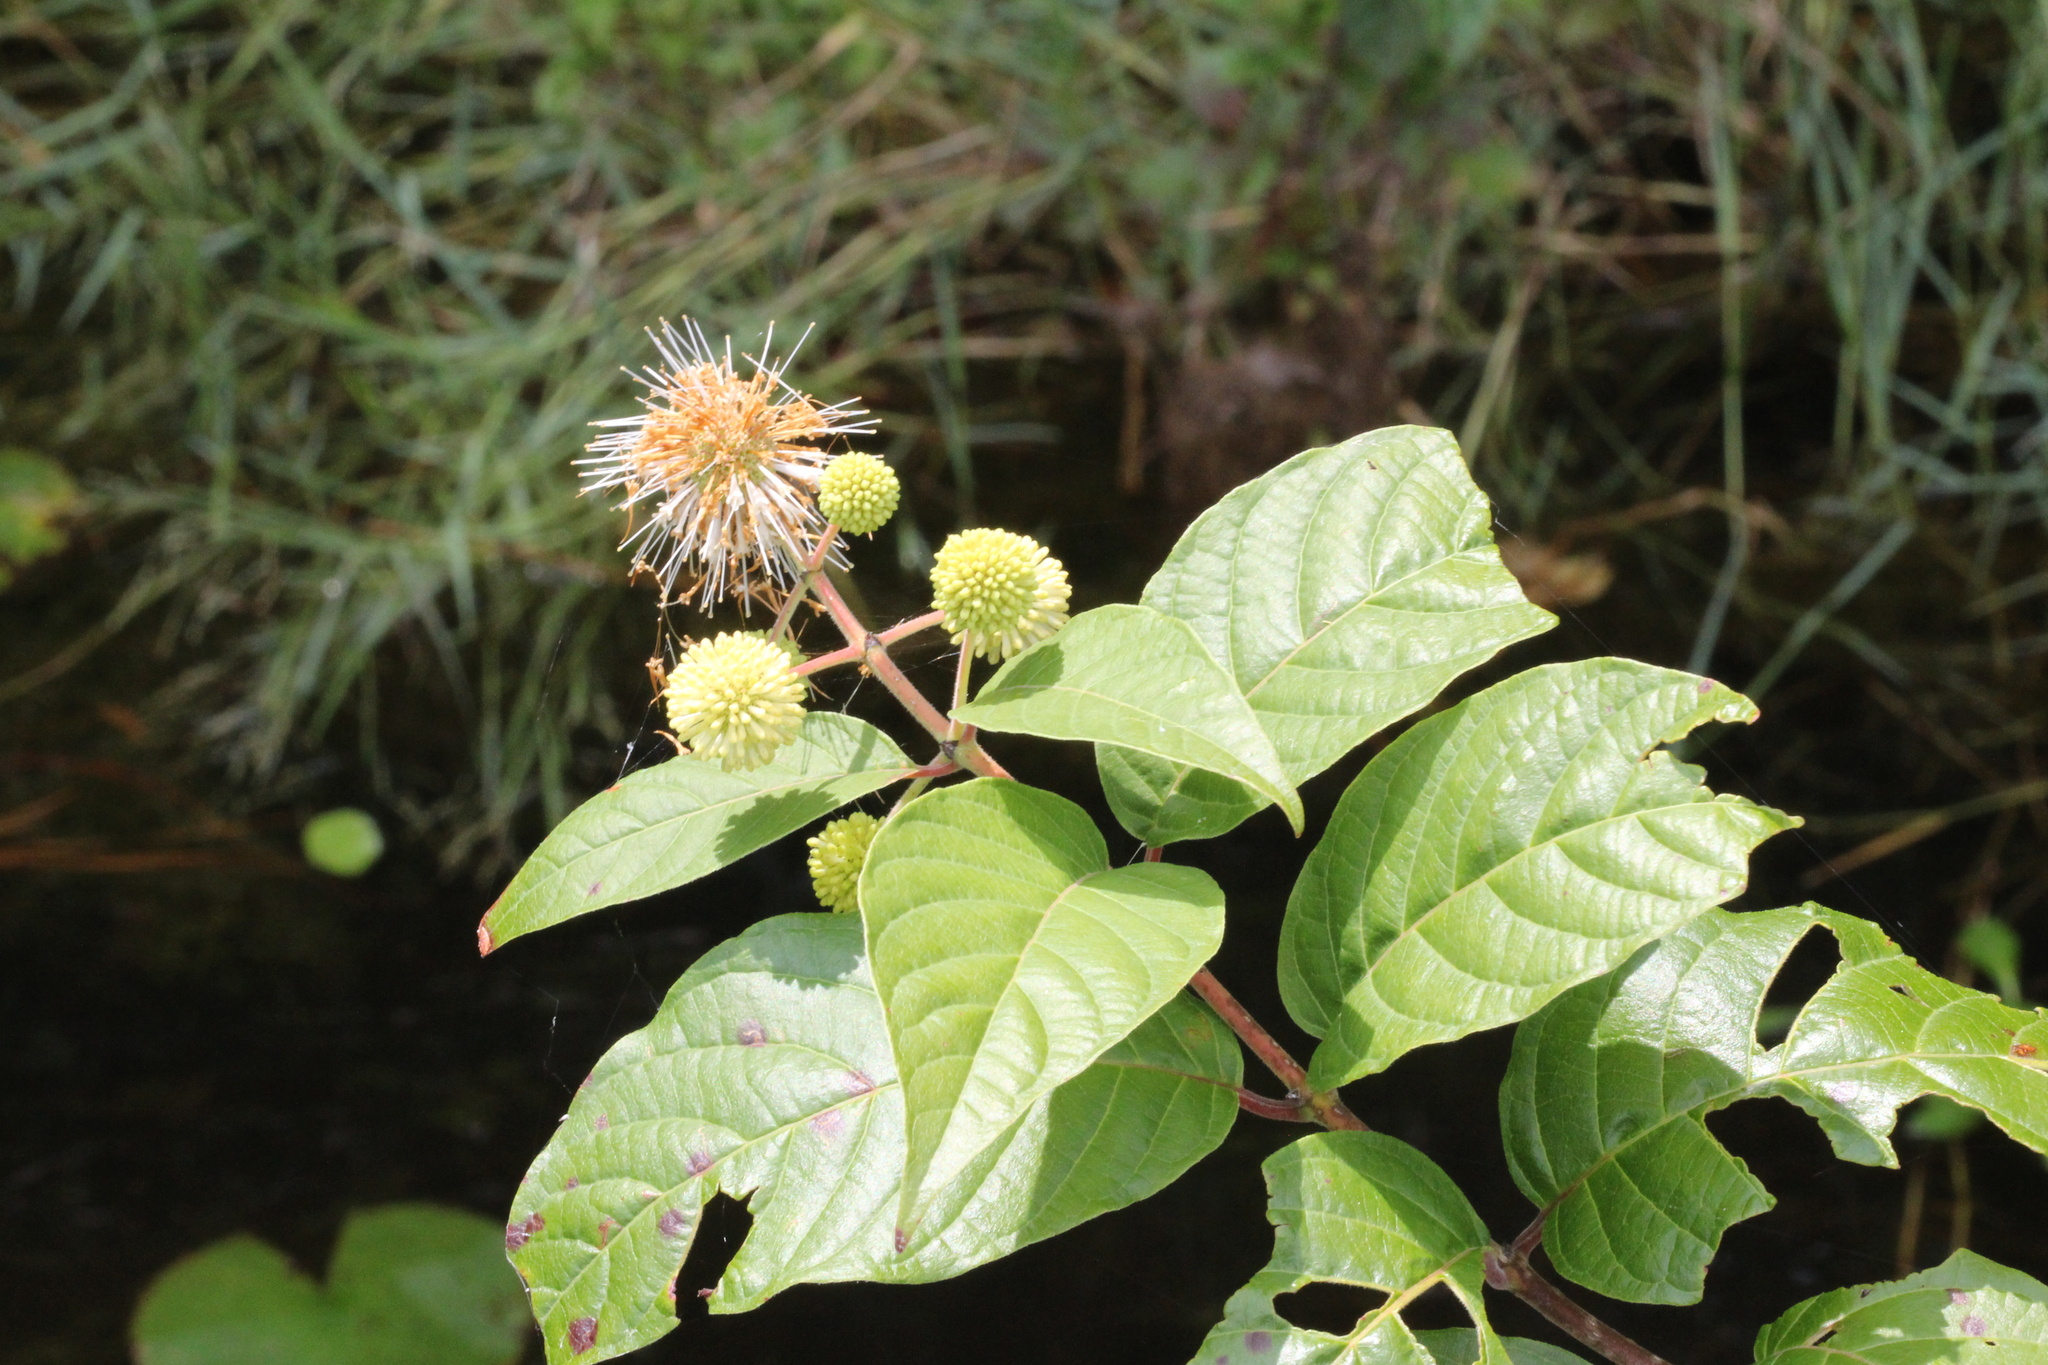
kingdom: Plantae
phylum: Tracheophyta
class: Magnoliopsida
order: Gentianales
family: Rubiaceae
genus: Cephalanthus
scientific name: Cephalanthus occidentalis
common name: Button-willow
